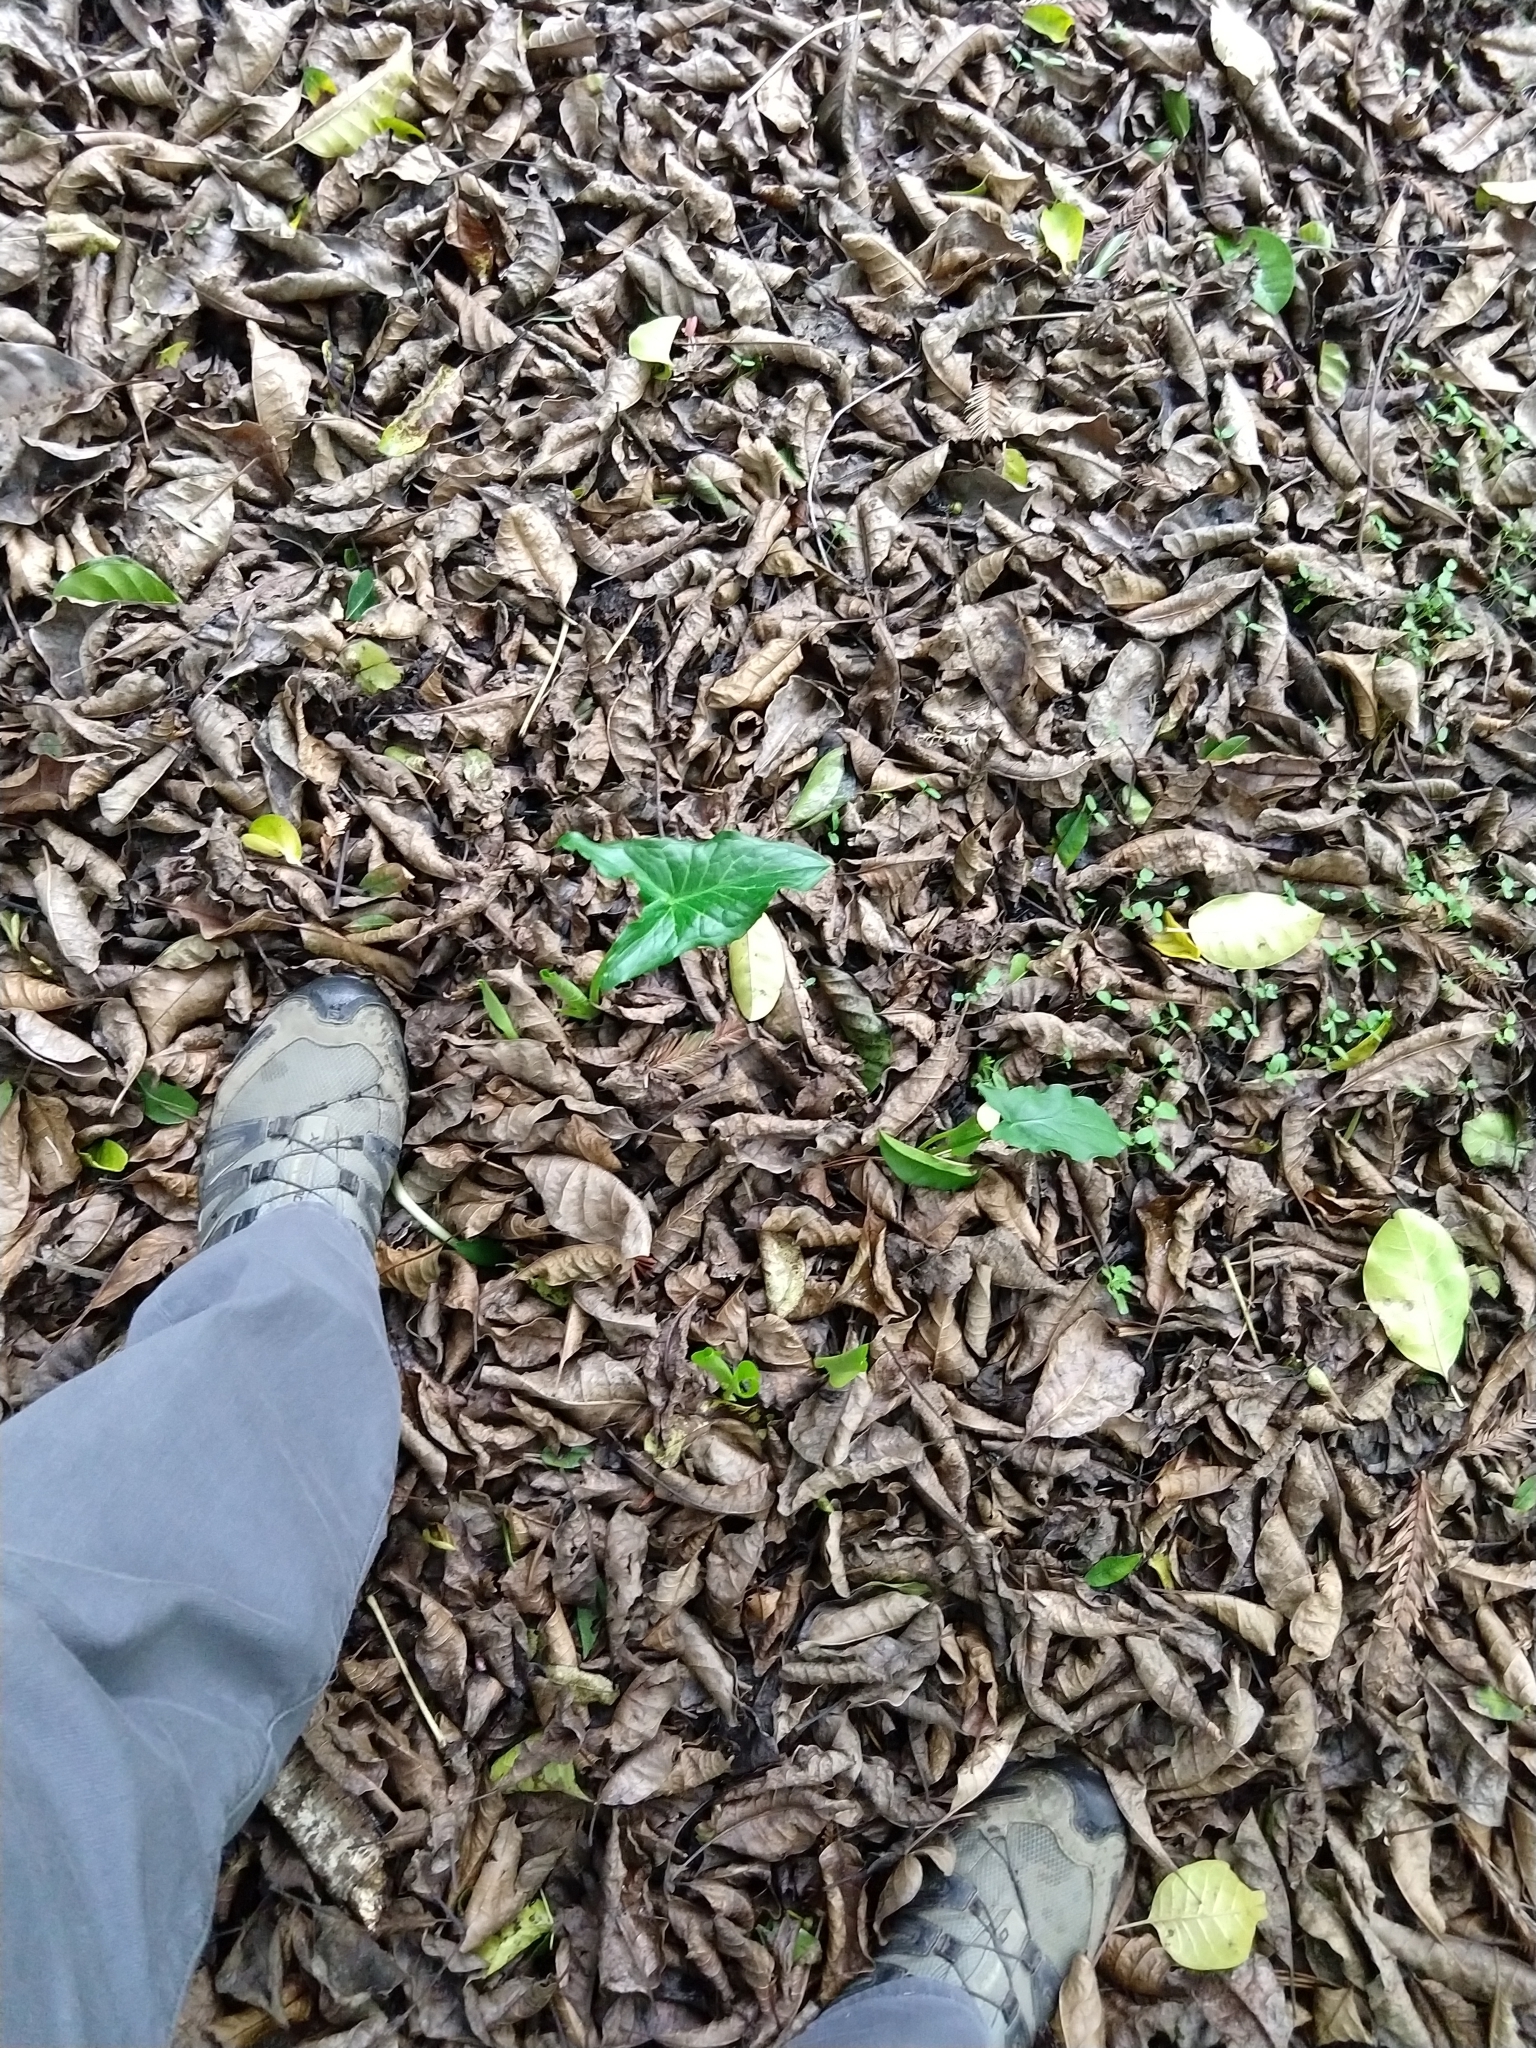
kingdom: Plantae
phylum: Tracheophyta
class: Liliopsida
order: Alismatales
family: Araceae
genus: Arum
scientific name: Arum italicum
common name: Italian lords-and-ladies
